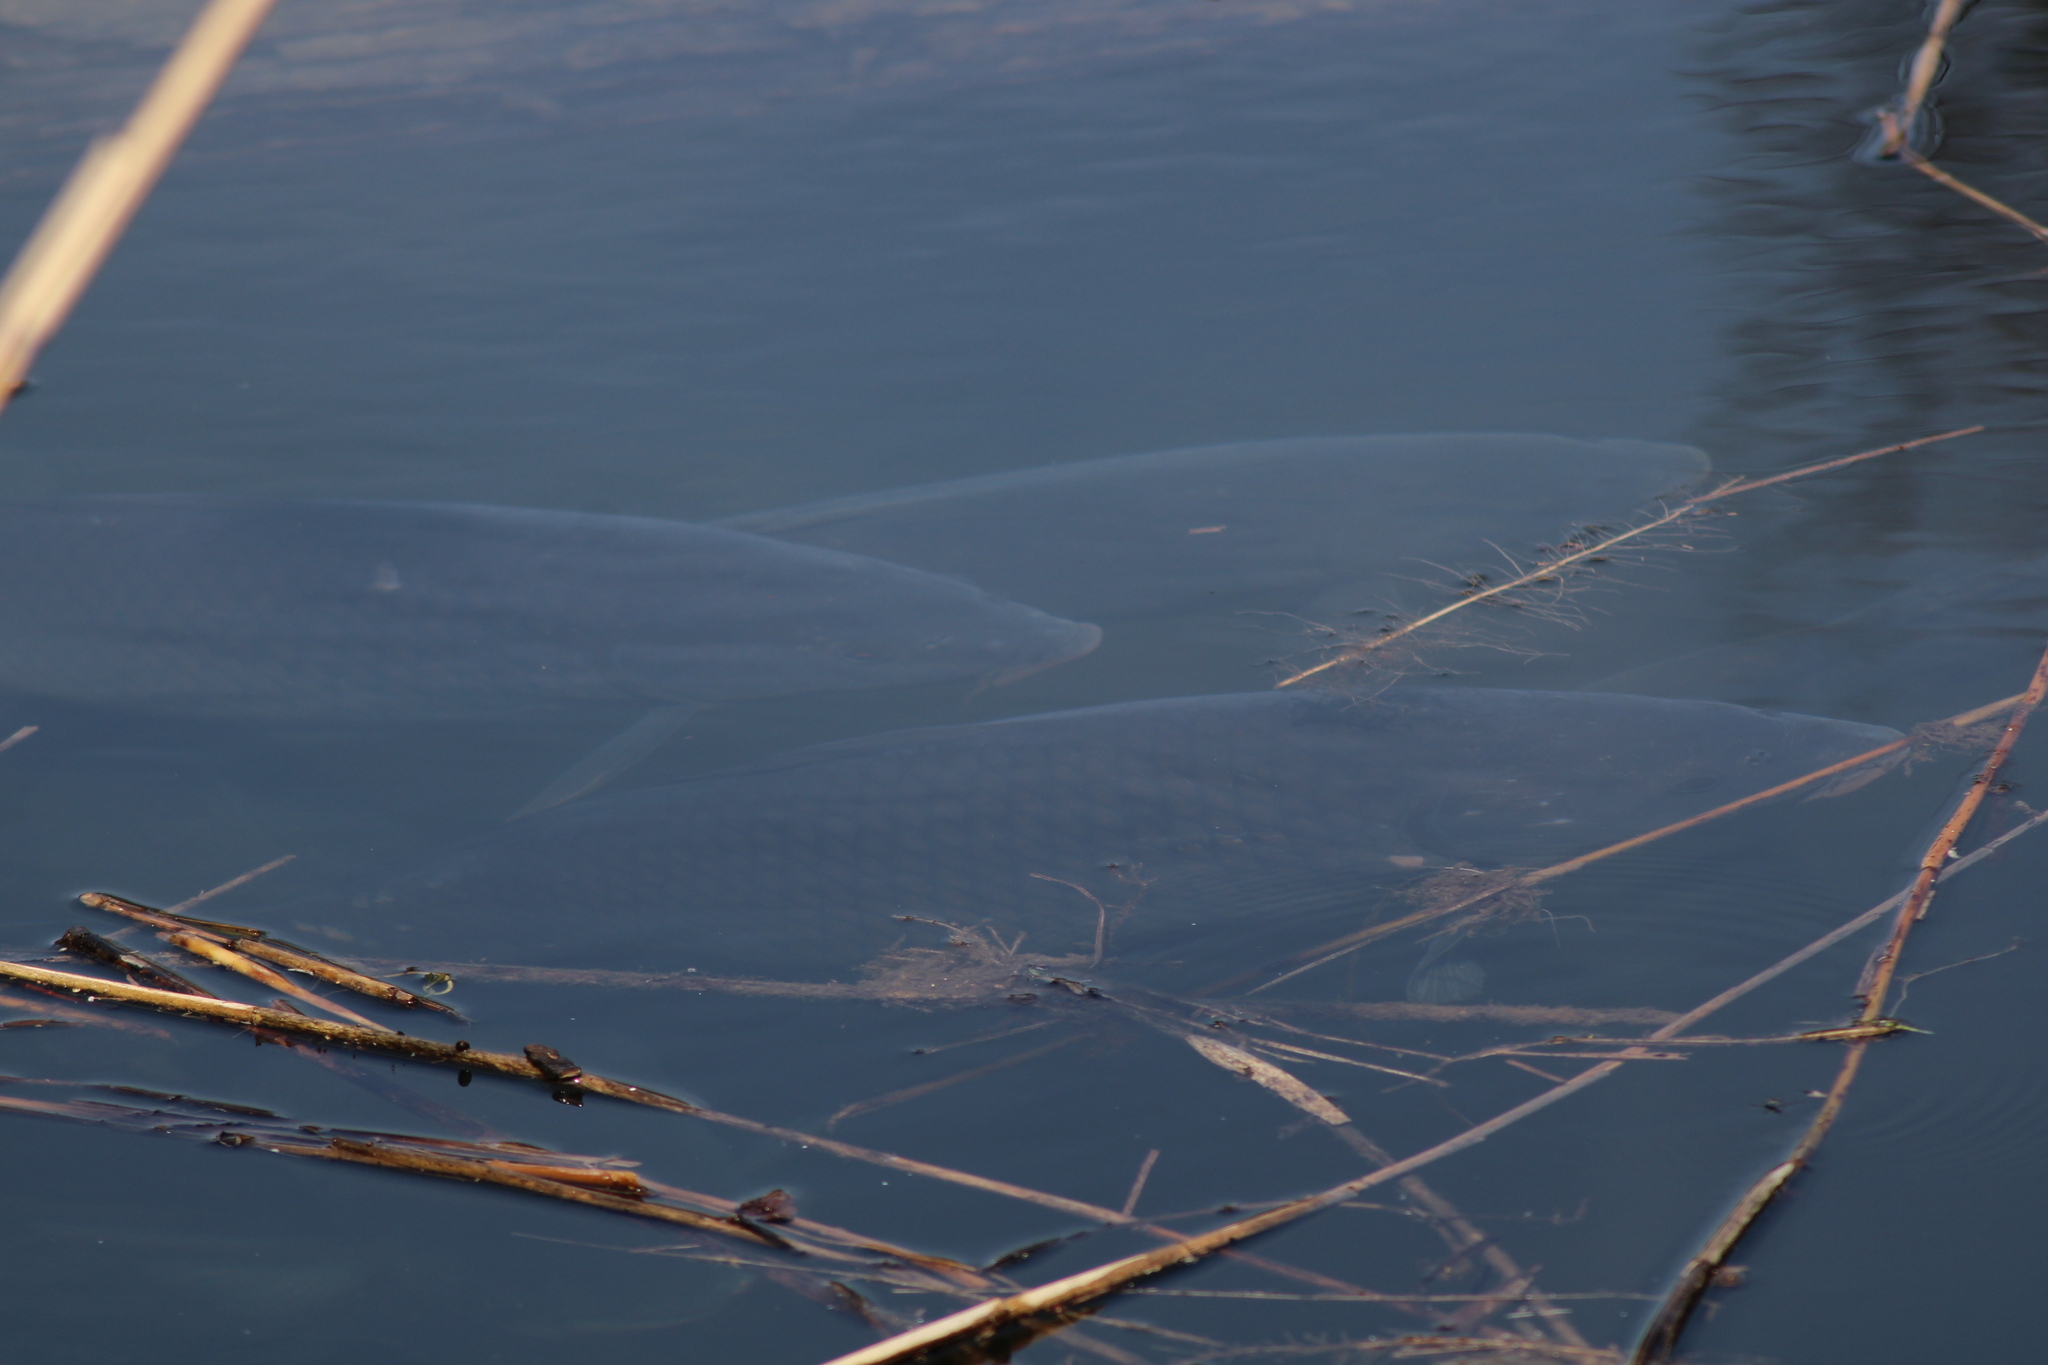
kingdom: Animalia
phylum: Chordata
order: Cypriniformes
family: Cyprinidae
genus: Cyprinus
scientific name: Cyprinus carpio
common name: Common carp
